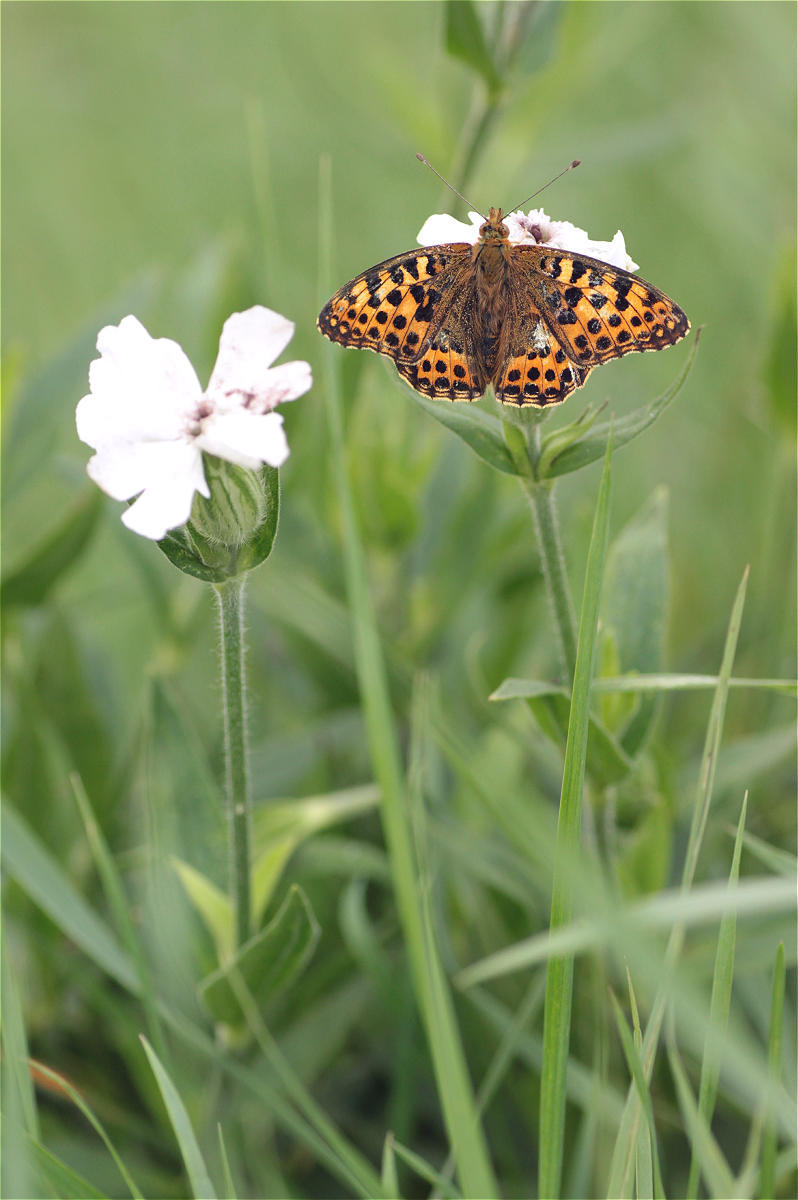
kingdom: Animalia
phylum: Arthropoda
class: Insecta
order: Lepidoptera
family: Nymphalidae
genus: Issoria
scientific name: Issoria lathonia
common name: Queen of spain fritillary
